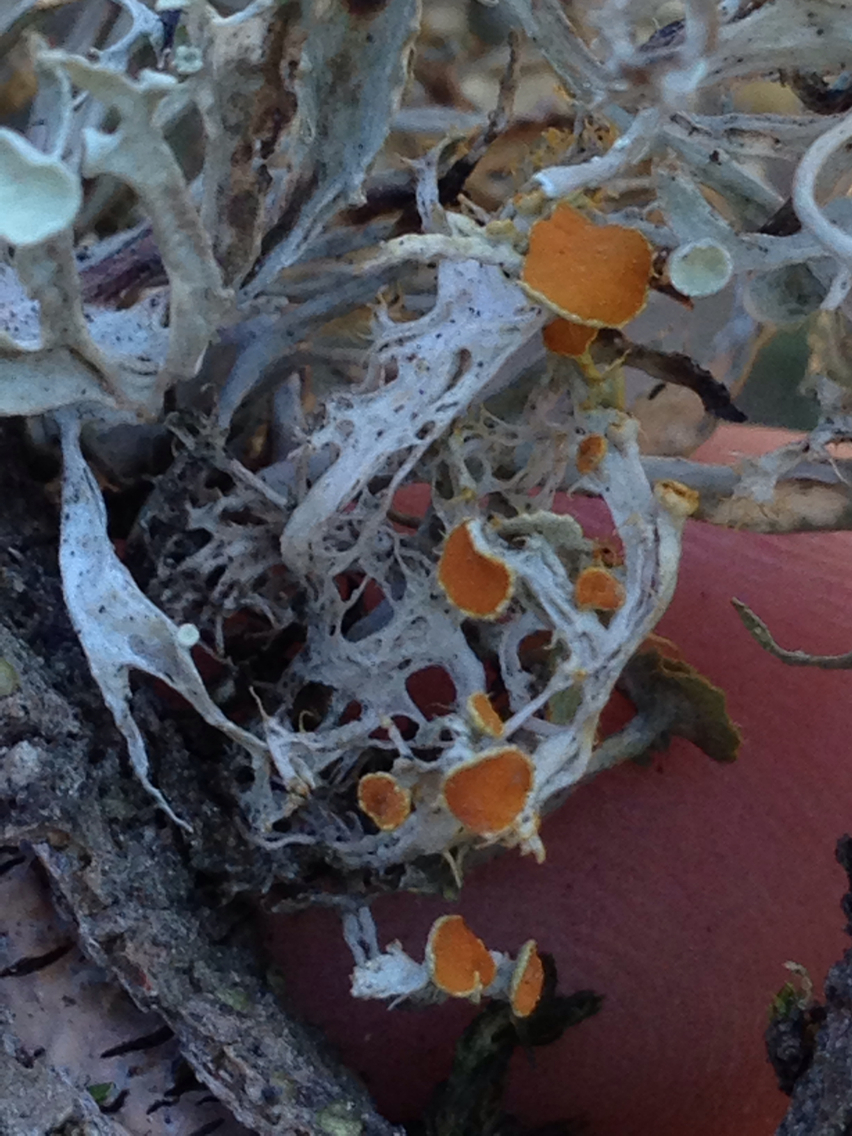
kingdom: Fungi
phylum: Ascomycota
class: Lecanoromycetes
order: Teloschistales
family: Teloschistaceae
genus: Niorma
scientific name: Niorma chrysophthalma
